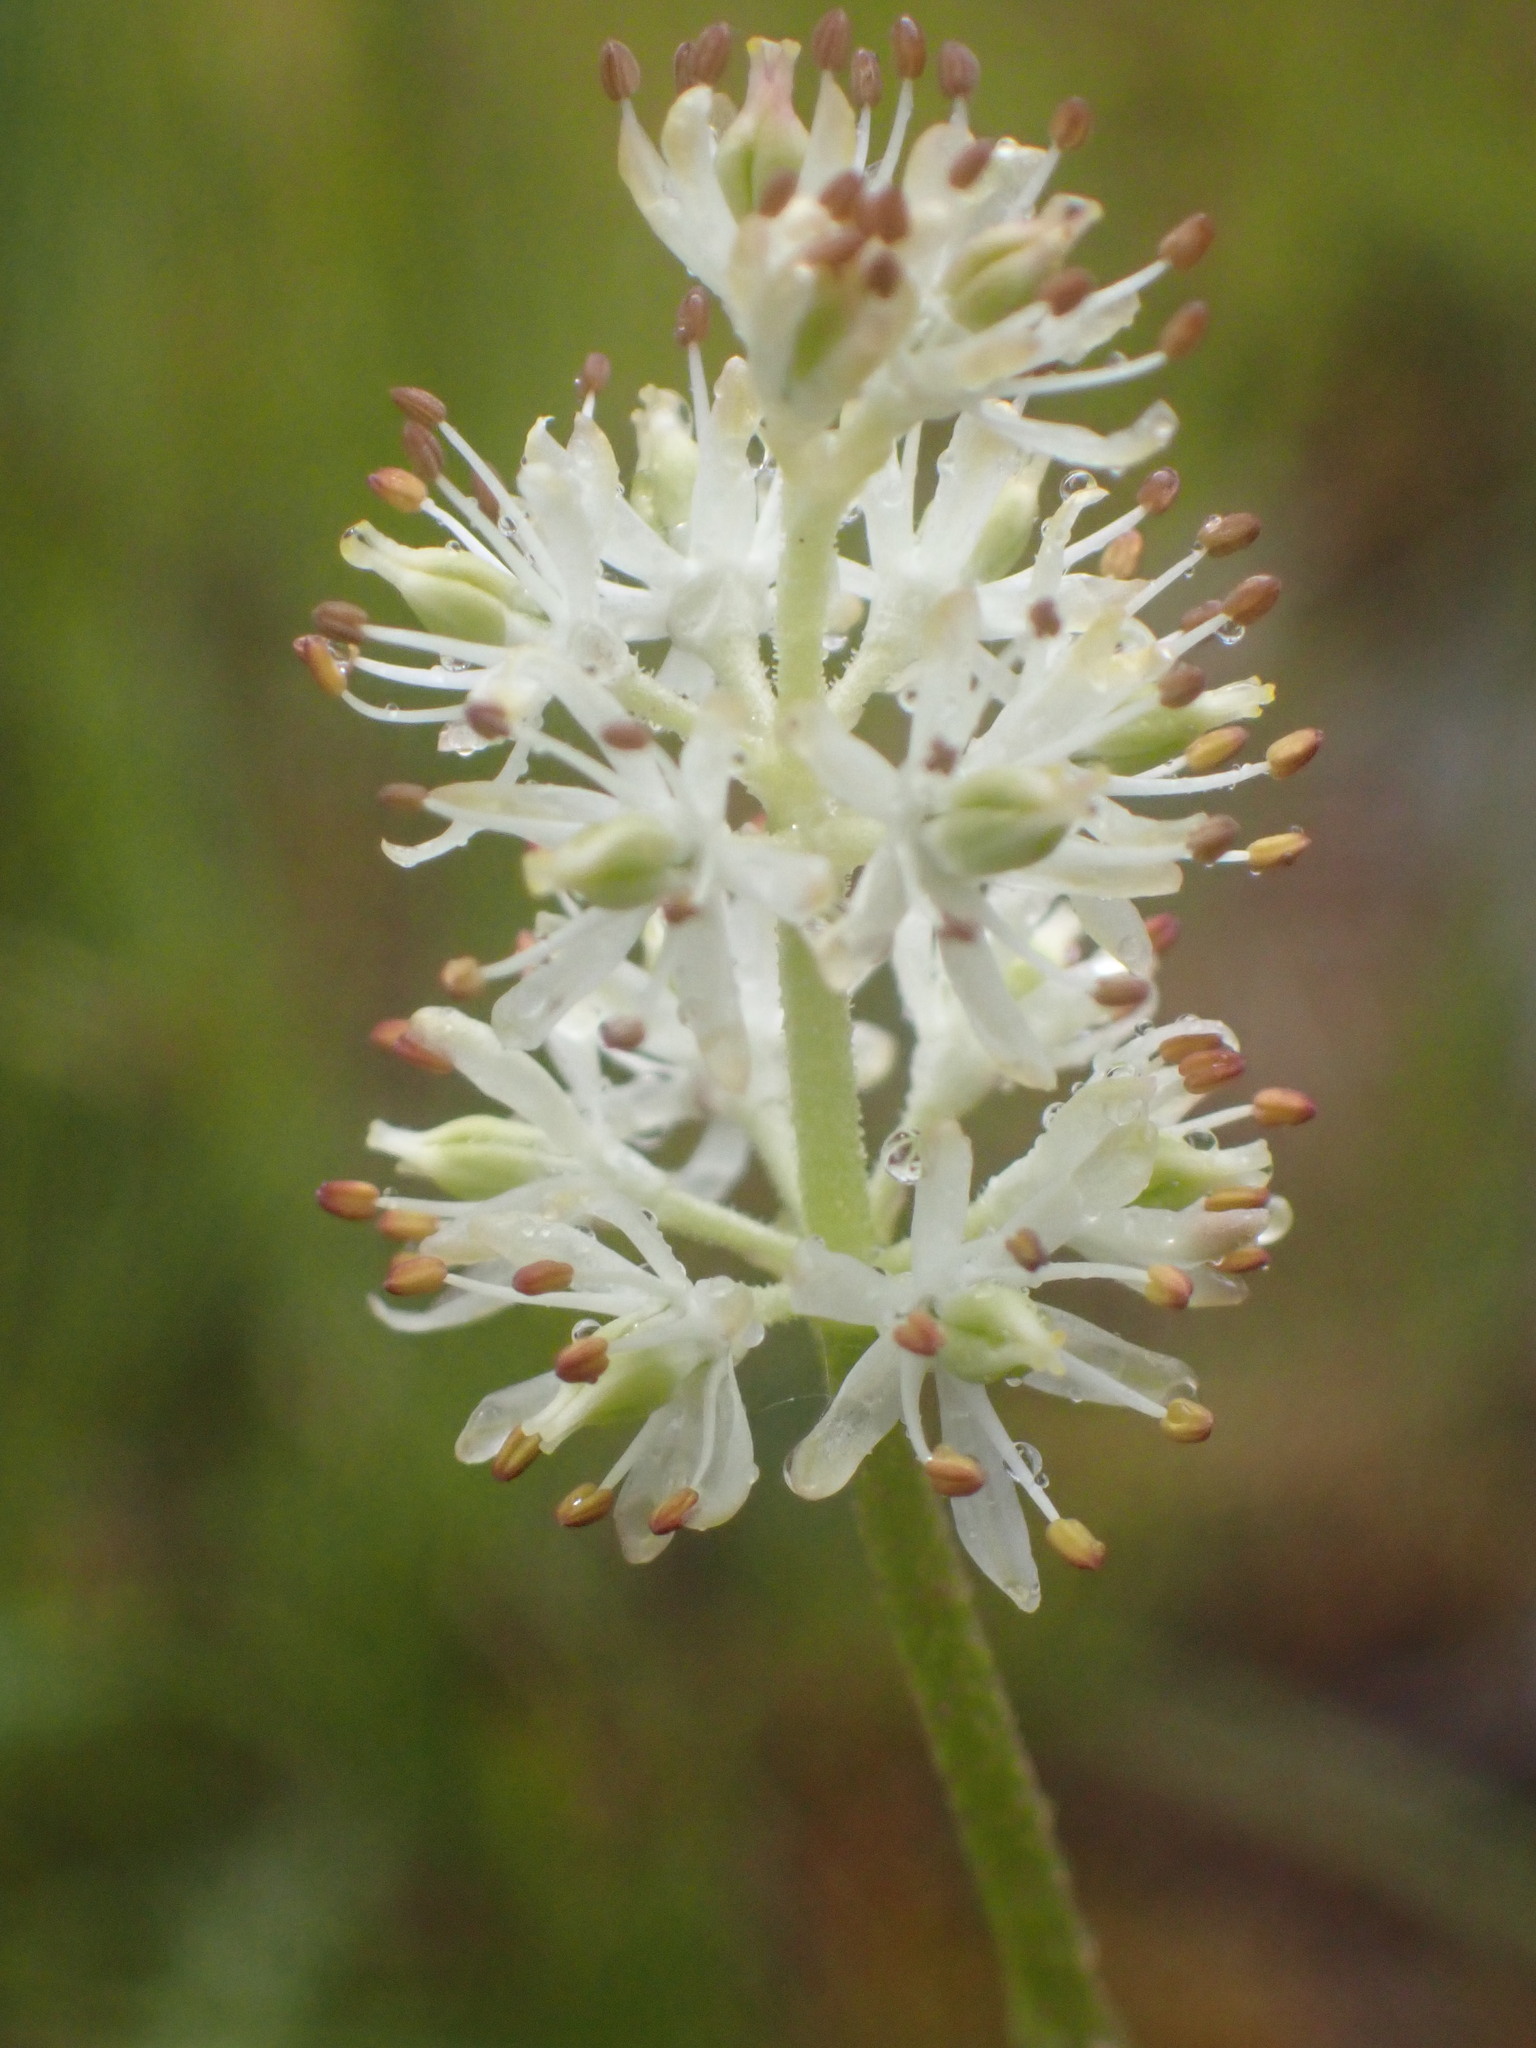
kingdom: Plantae
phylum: Tracheophyta
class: Liliopsida
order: Alismatales
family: Tofieldiaceae
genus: Triantha
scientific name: Triantha glutinosa
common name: Glutinous tofieldia
